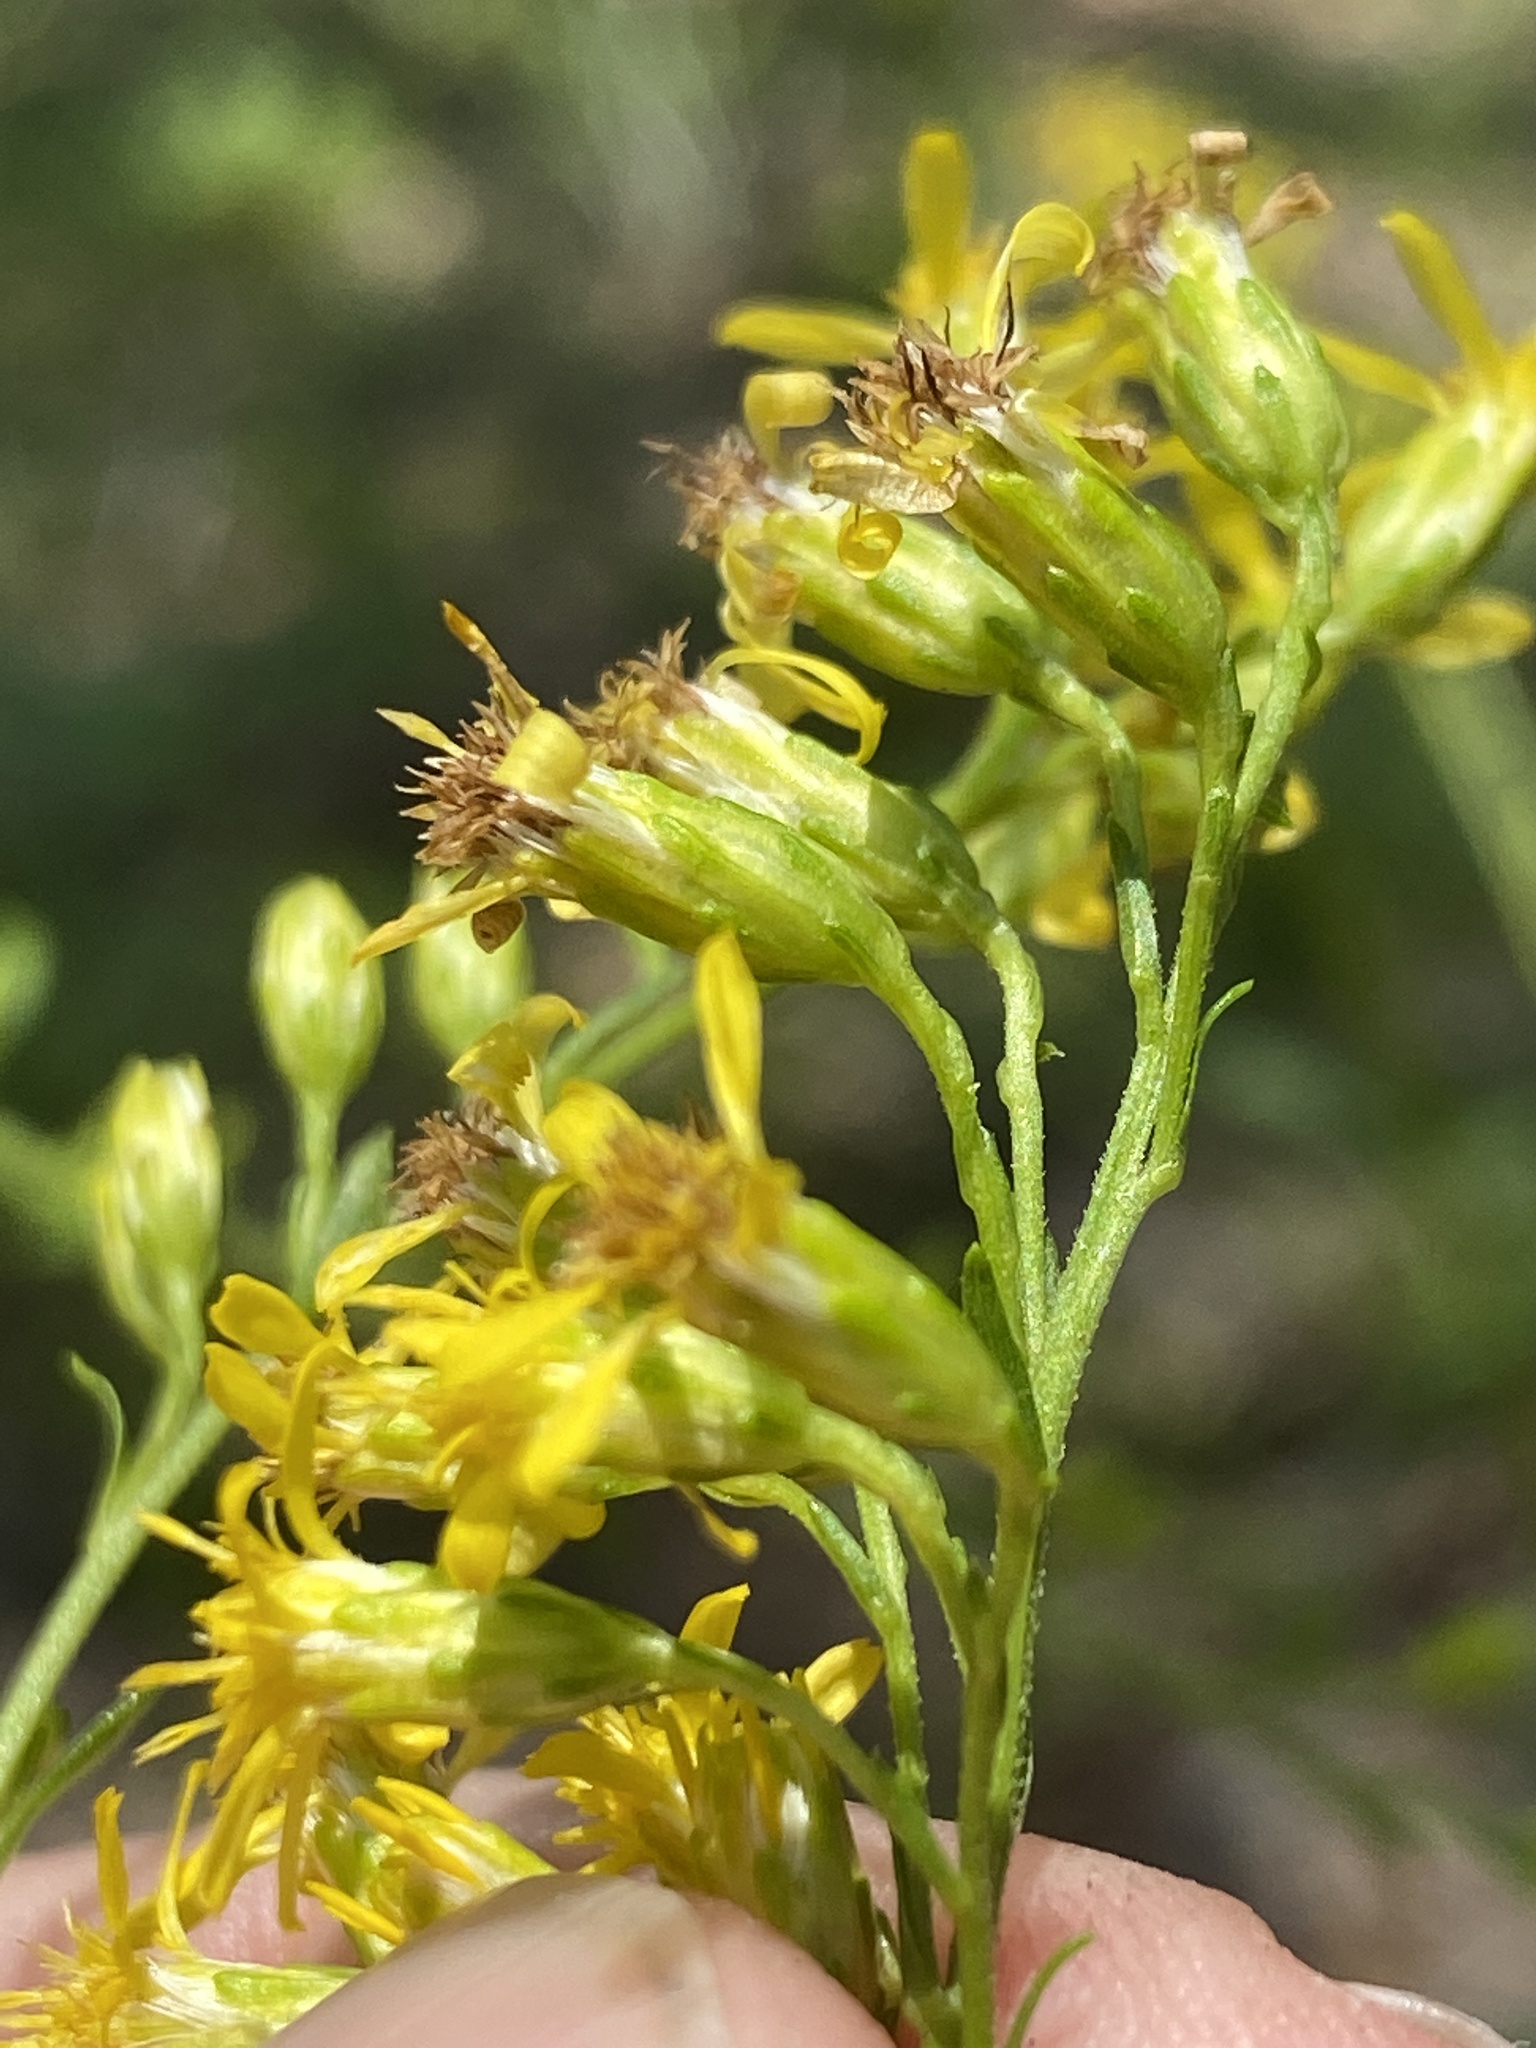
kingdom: Plantae
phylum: Tracheophyta
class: Magnoliopsida
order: Asterales
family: Asteraceae
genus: Solidago
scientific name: Solidago vaseyi
